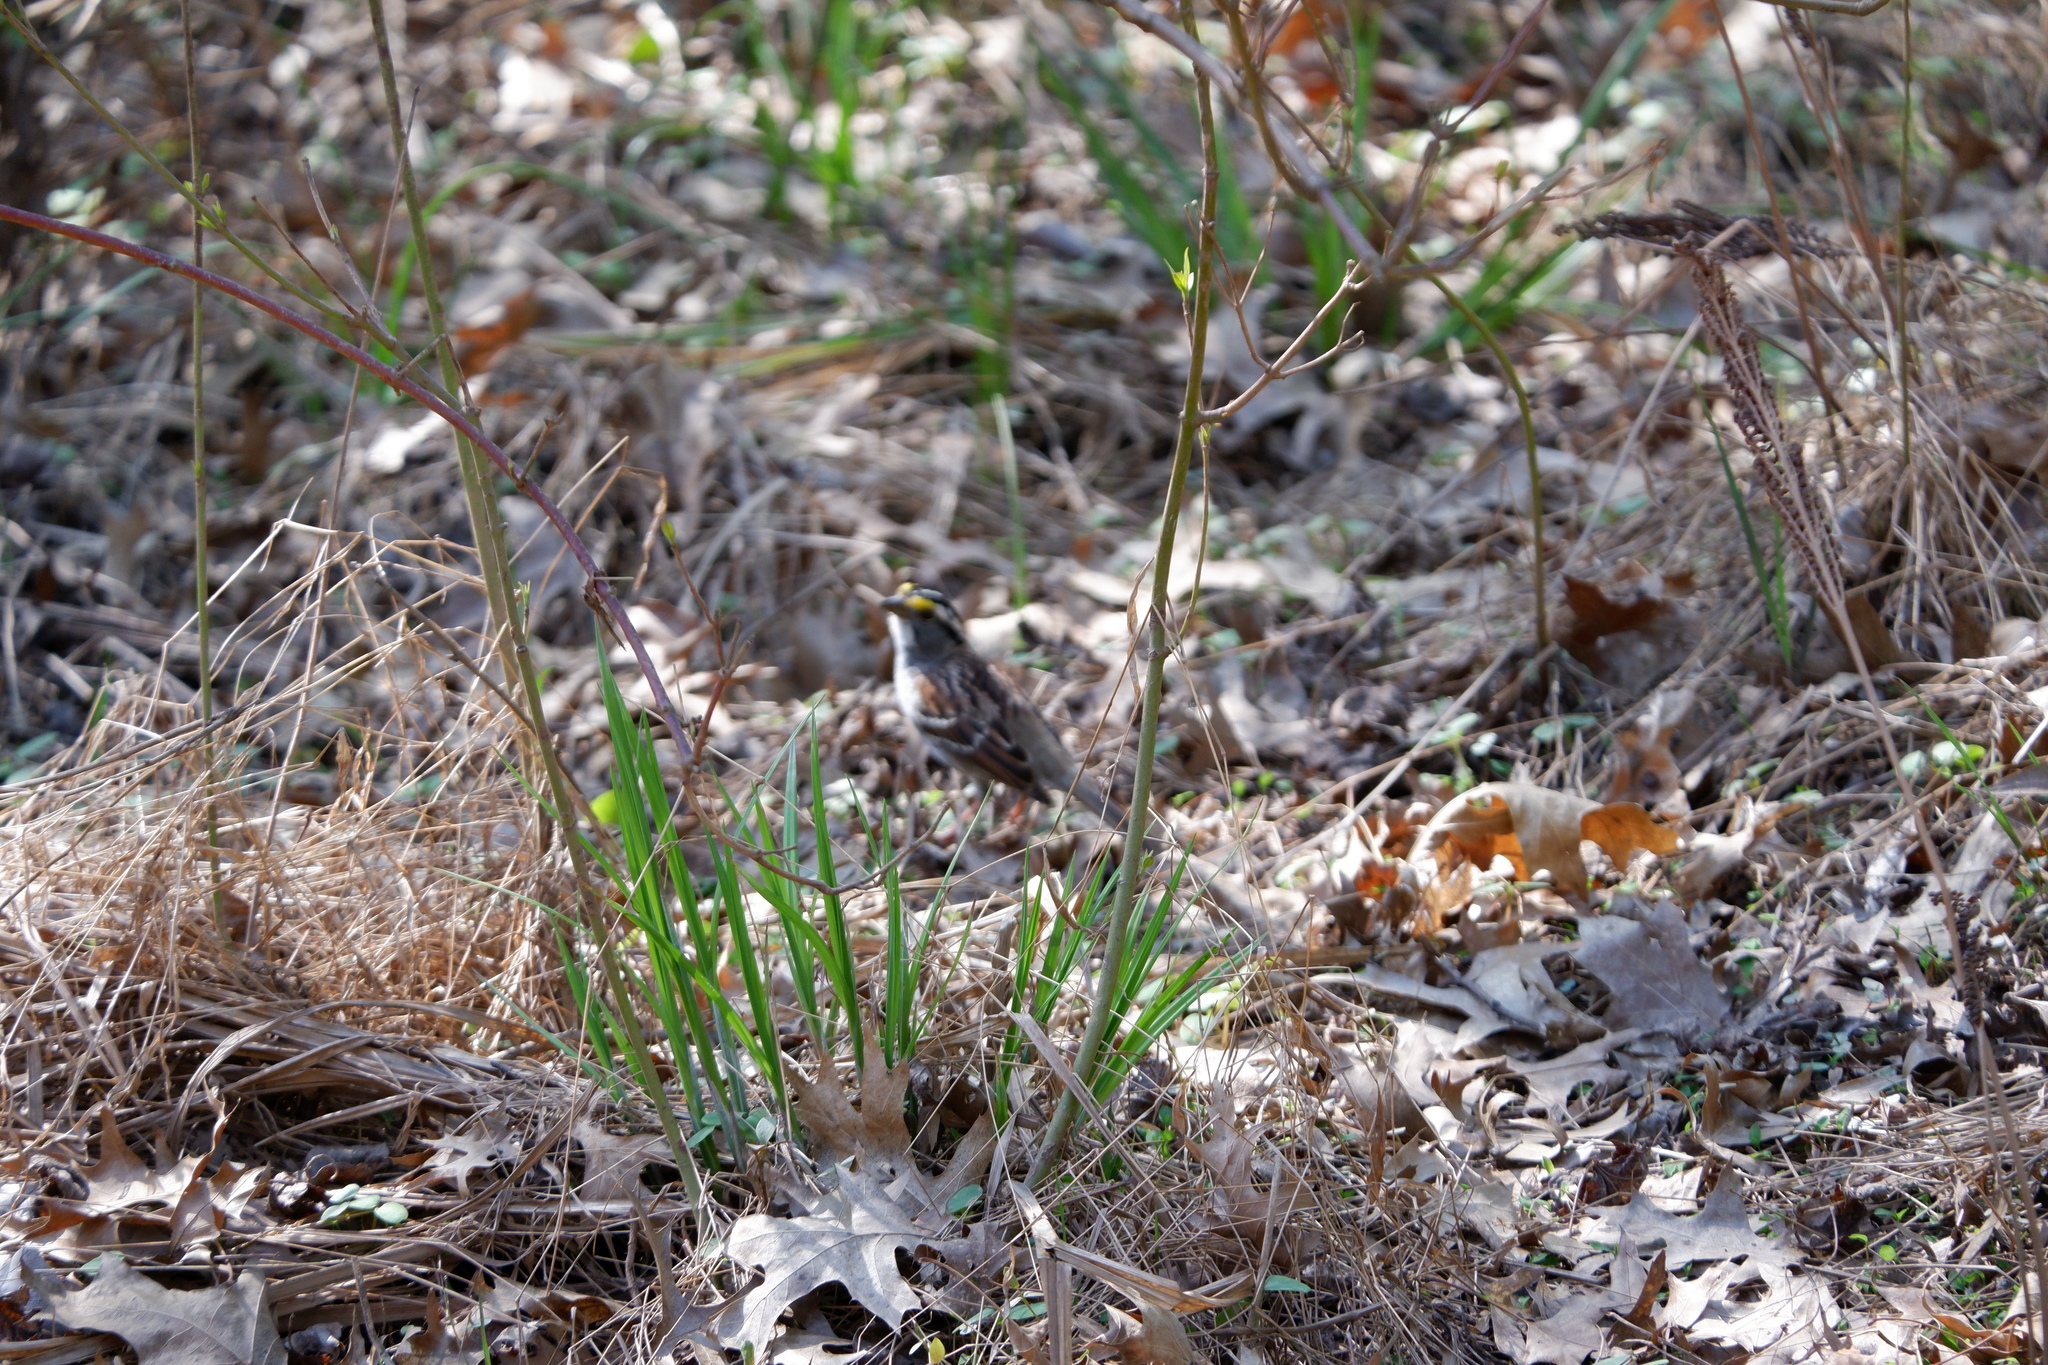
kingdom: Animalia
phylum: Chordata
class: Aves
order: Passeriformes
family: Passerellidae
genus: Zonotrichia
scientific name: Zonotrichia albicollis
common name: White-throated sparrow
